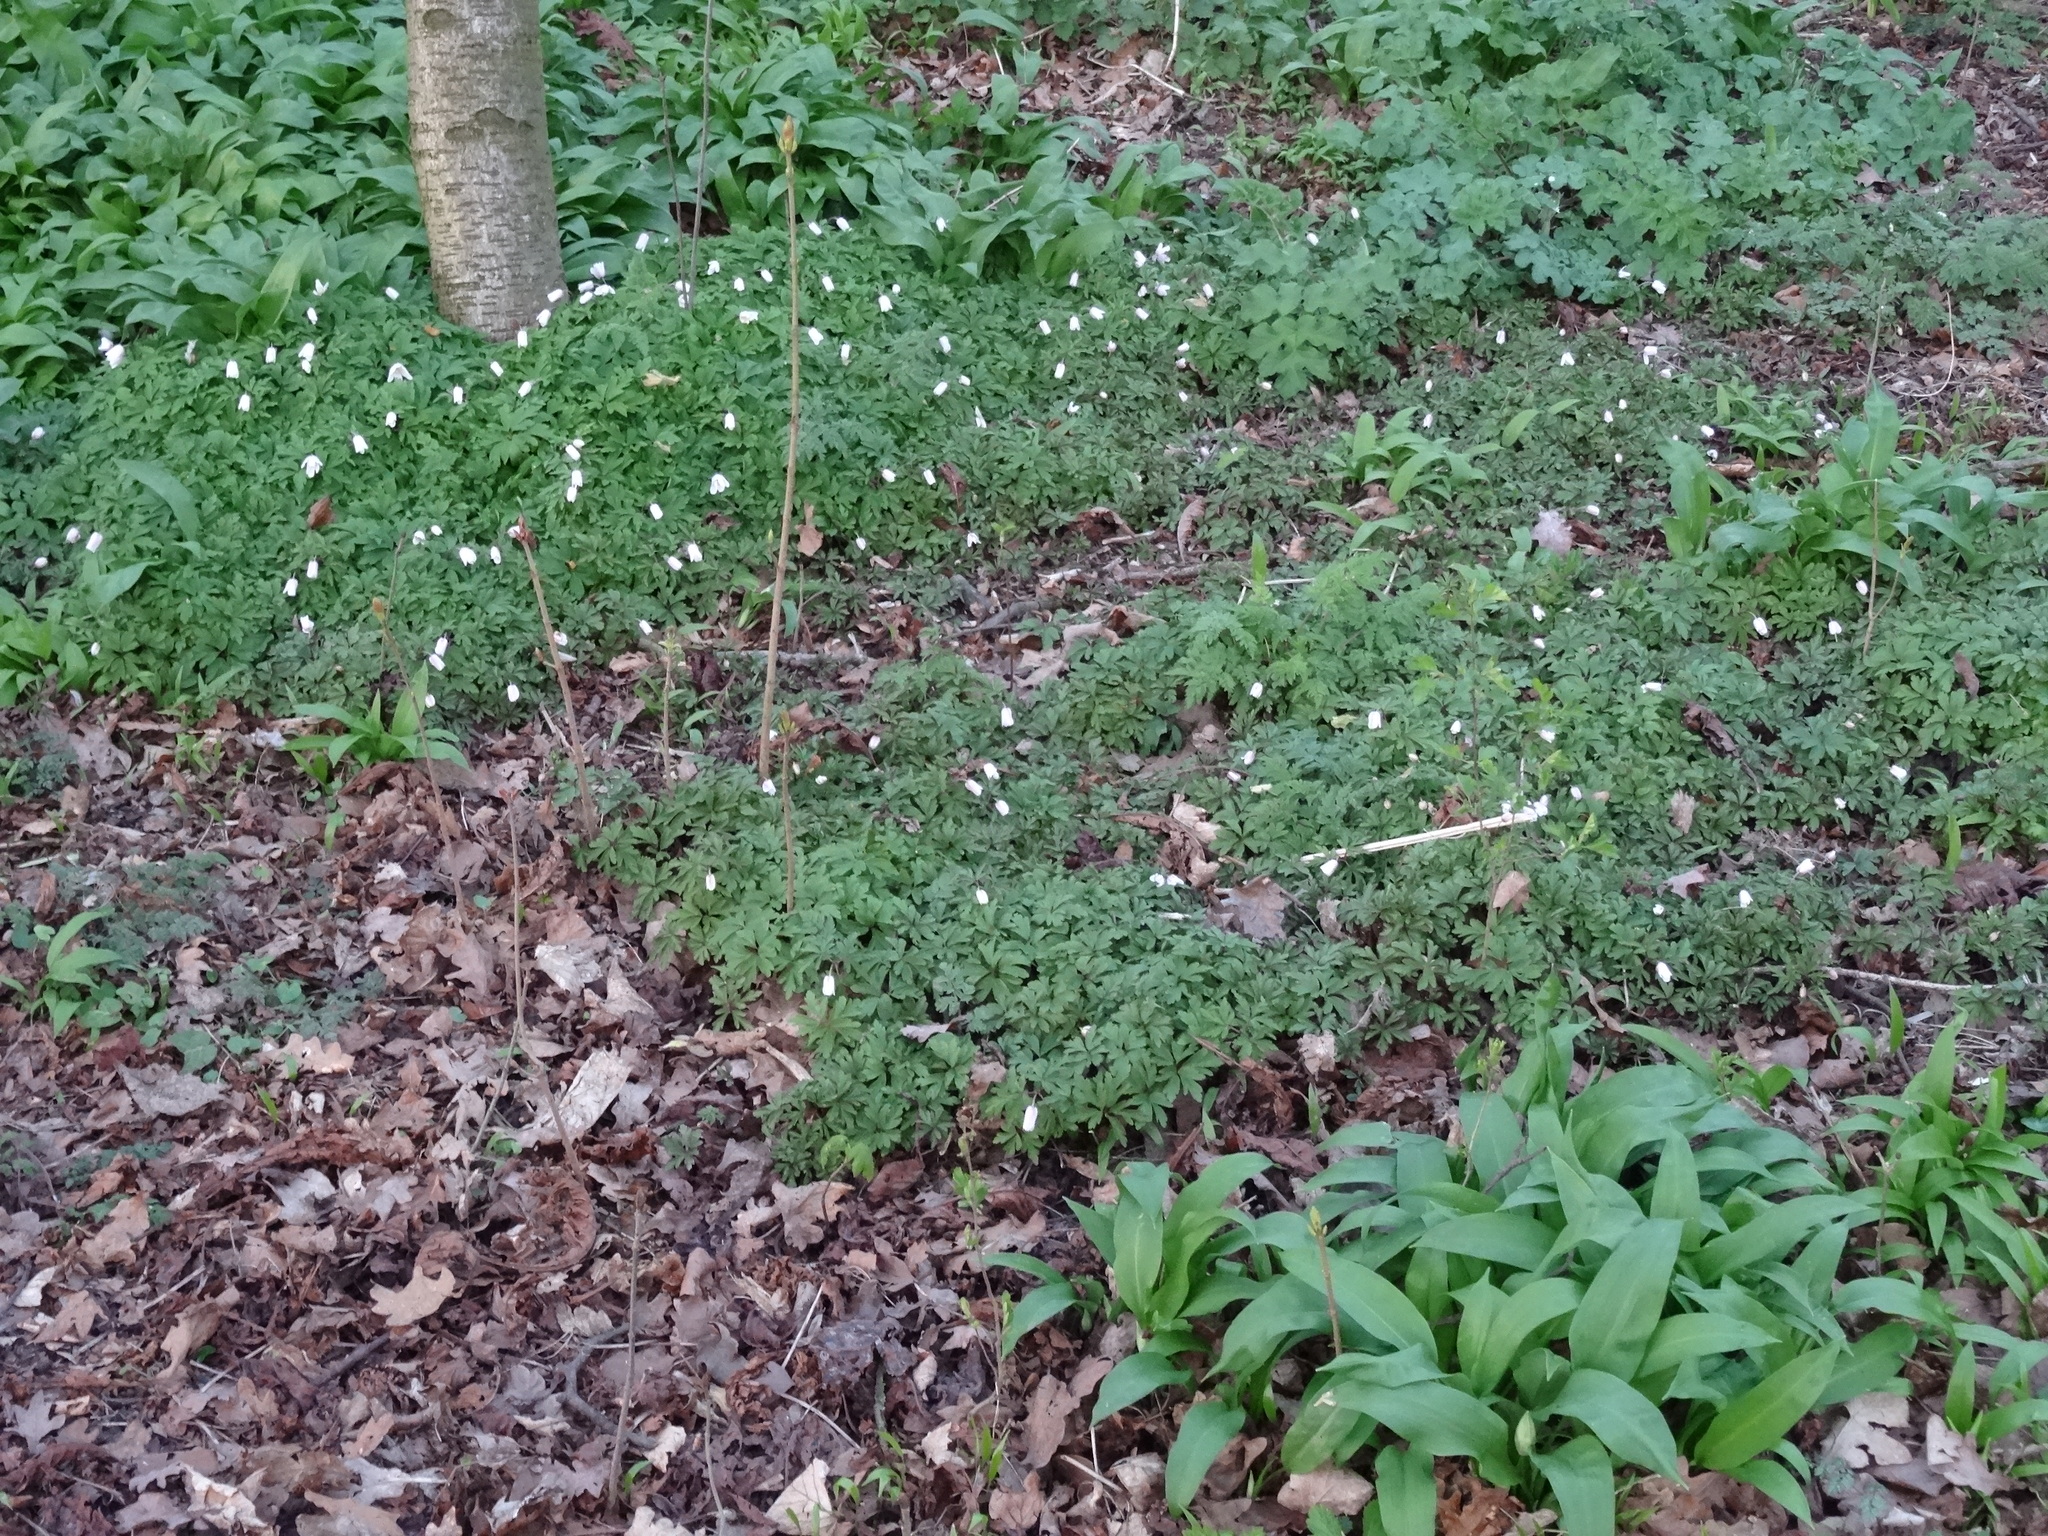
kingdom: Plantae
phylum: Tracheophyta
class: Magnoliopsida
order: Ranunculales
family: Ranunculaceae
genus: Anemone
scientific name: Anemone nemorosa
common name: Wood anemone
